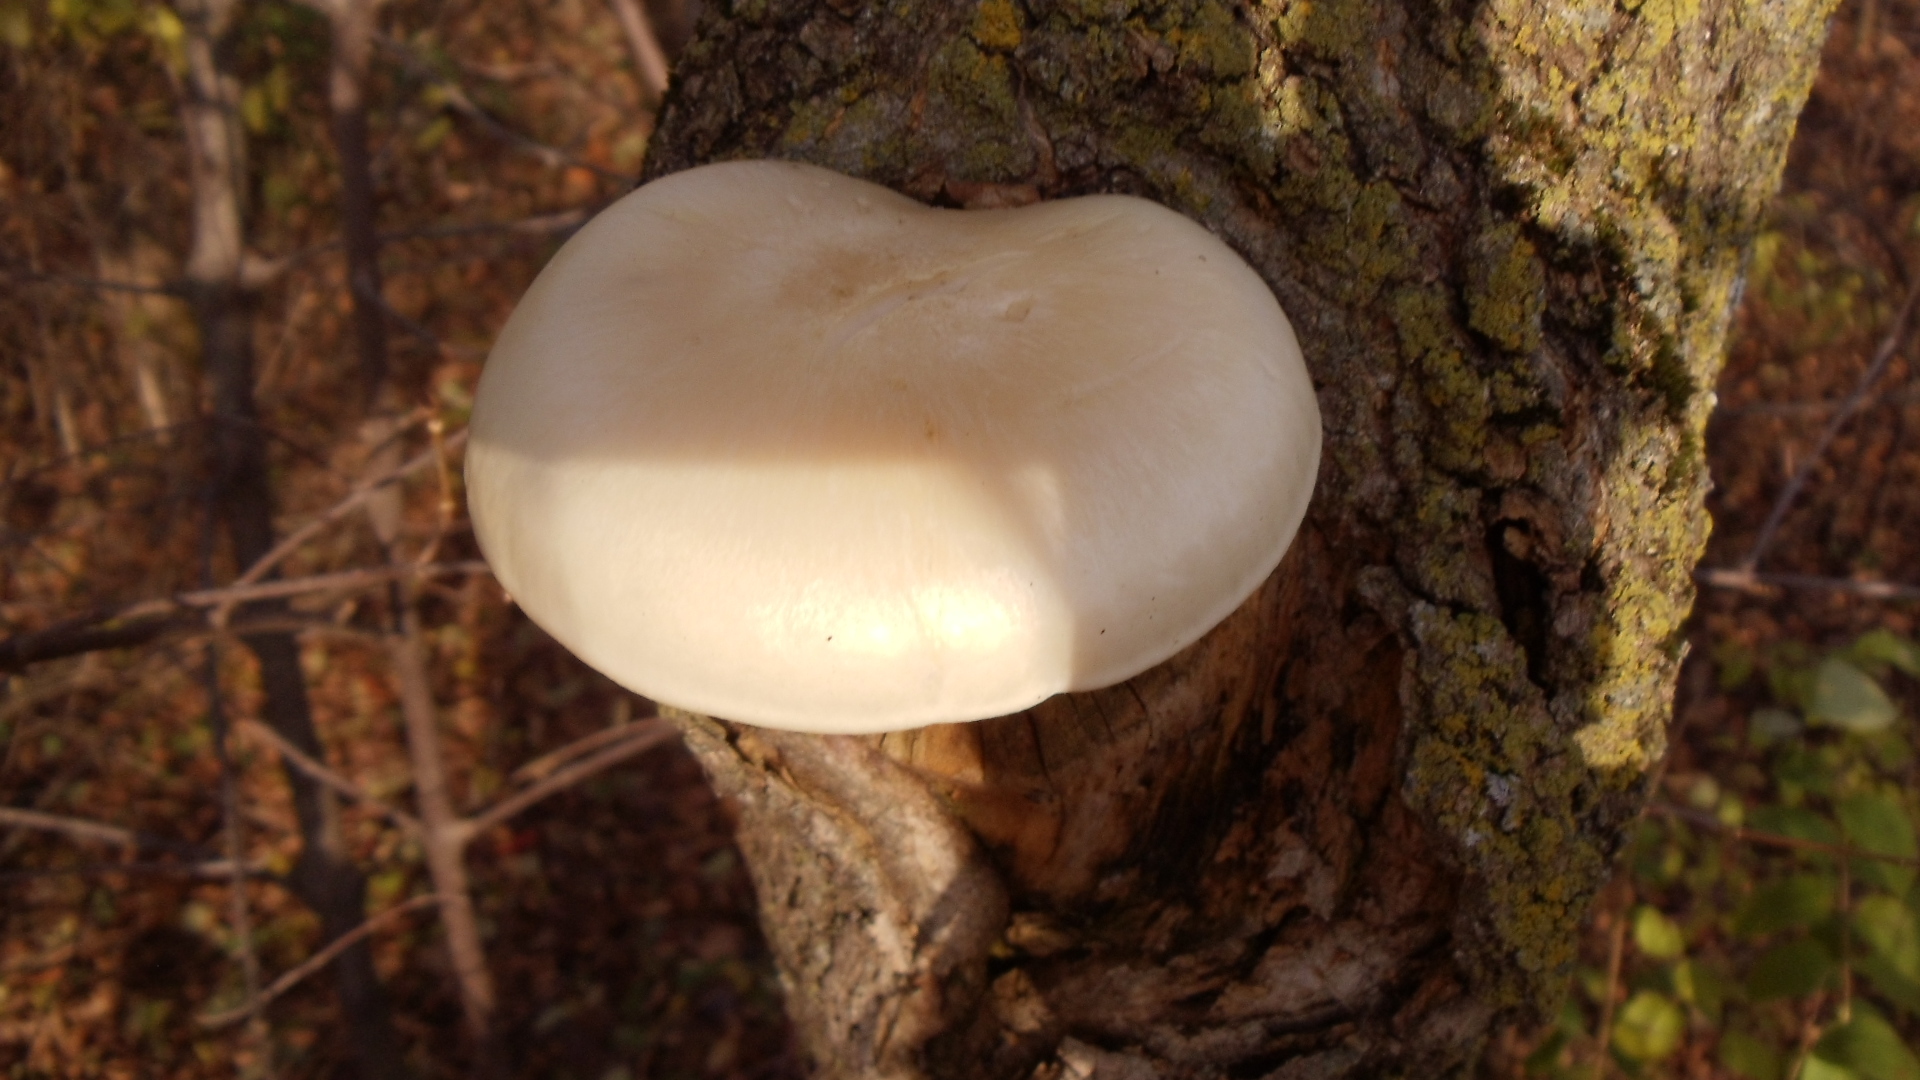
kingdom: Fungi
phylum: Basidiomycota
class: Agaricomycetes
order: Agaricales
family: Lyophyllaceae
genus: Hypsizygus
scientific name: Hypsizygus ulmarius
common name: Elm leech
